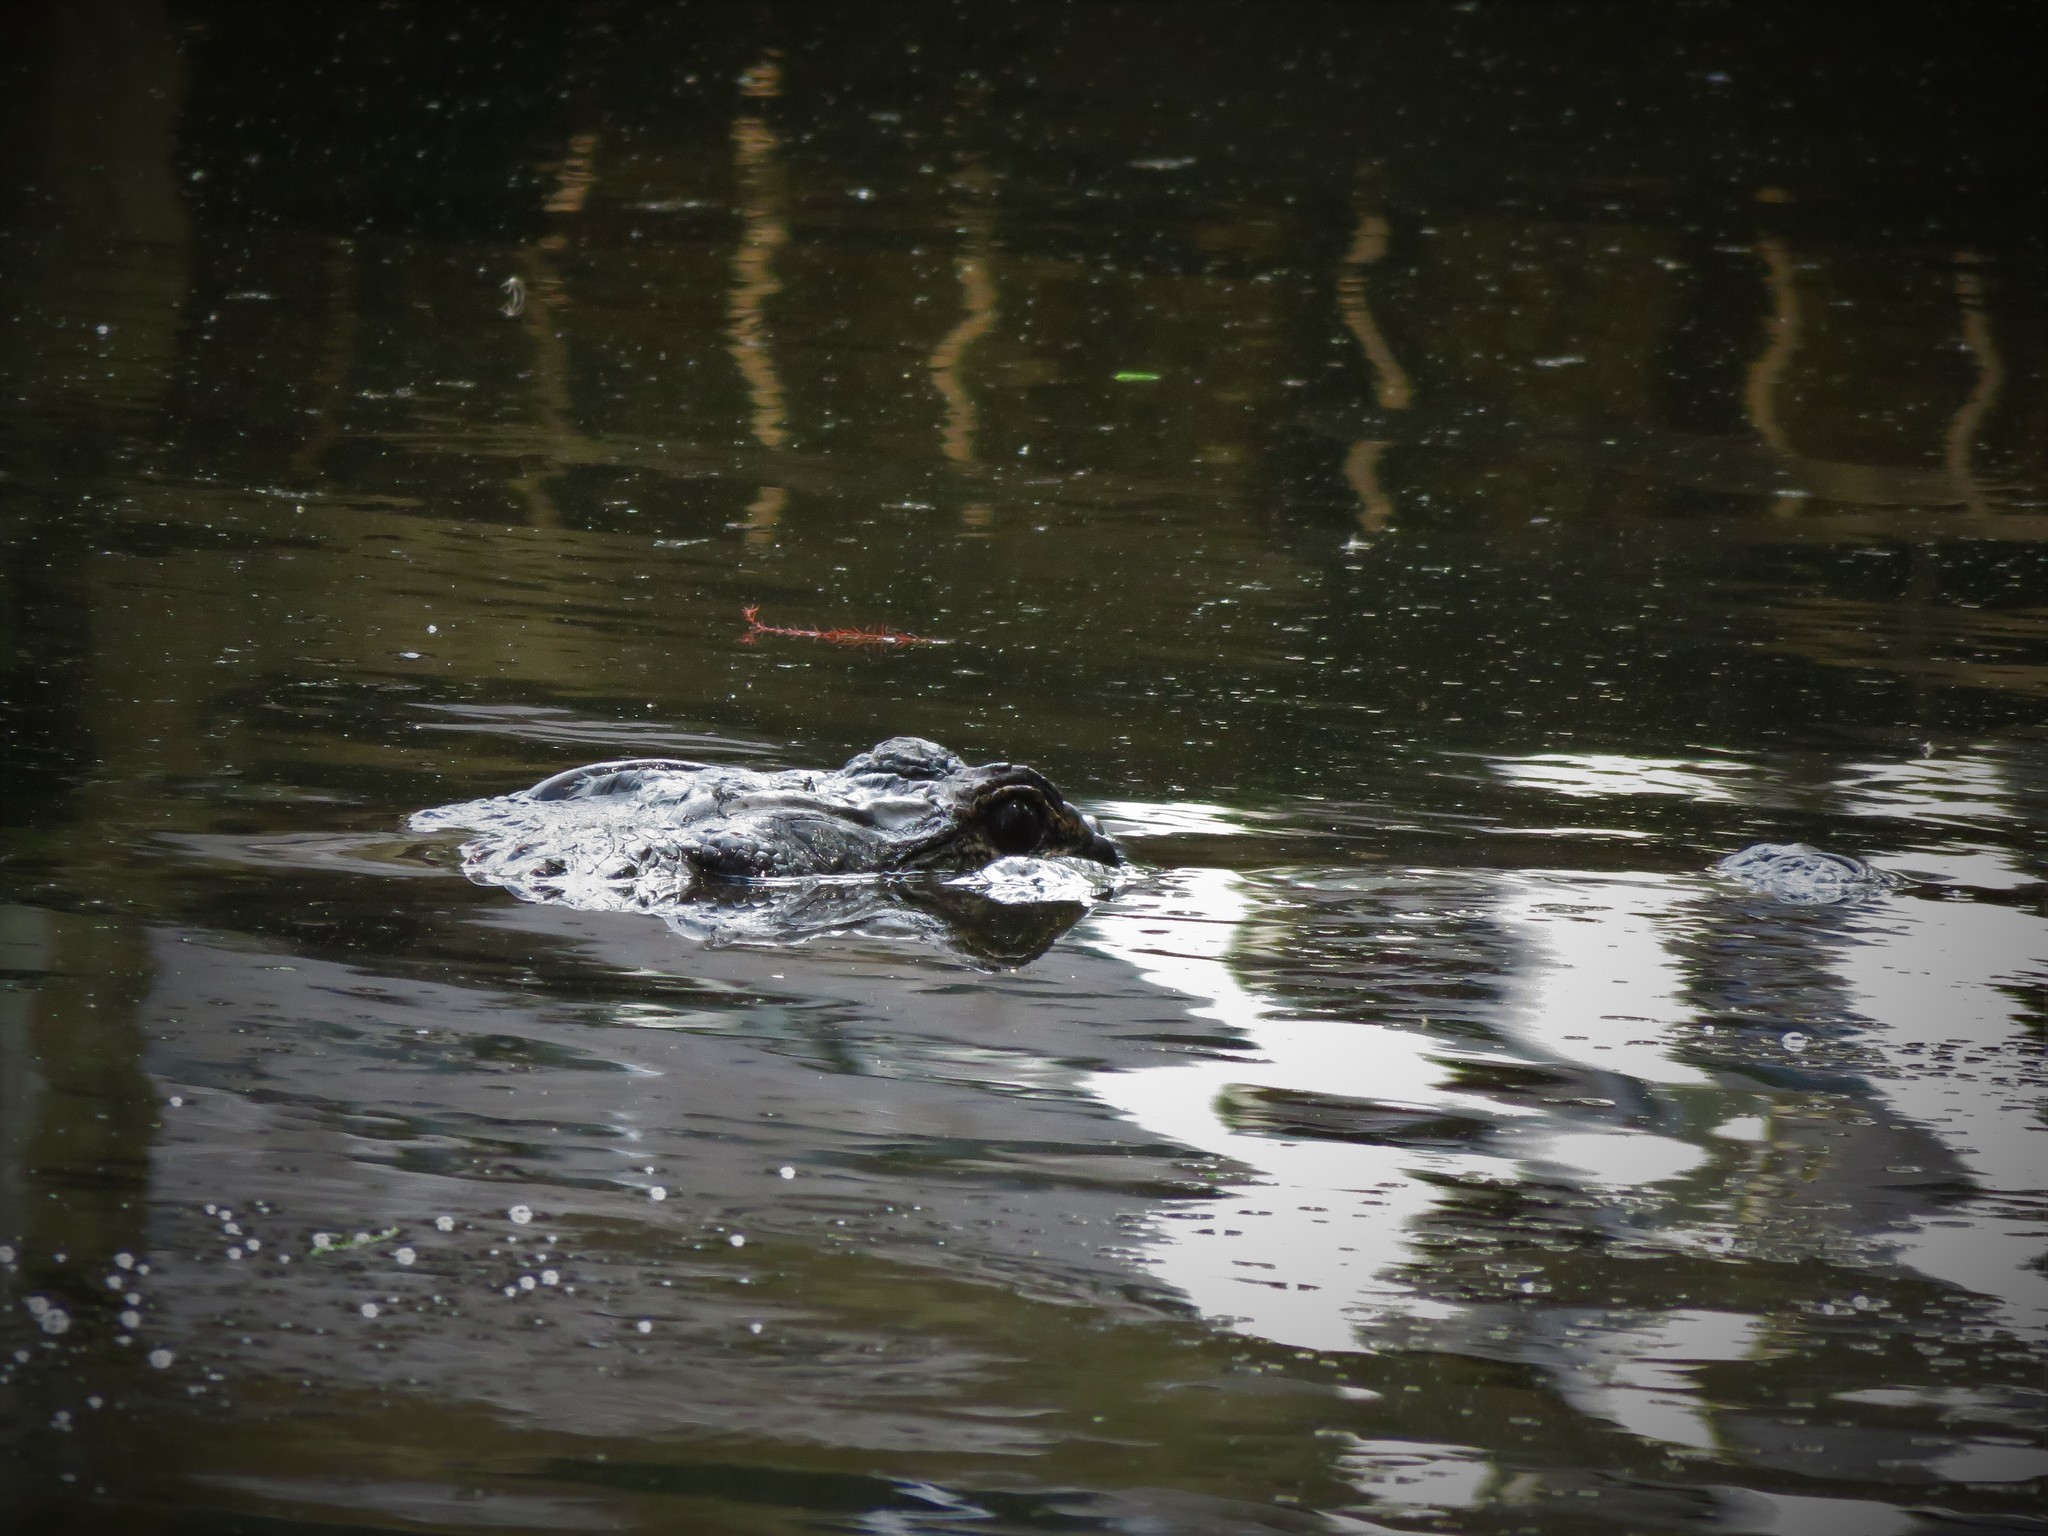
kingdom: Animalia
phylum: Chordata
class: Crocodylia
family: Alligatoridae
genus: Alligator
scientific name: Alligator mississippiensis
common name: American alligator
